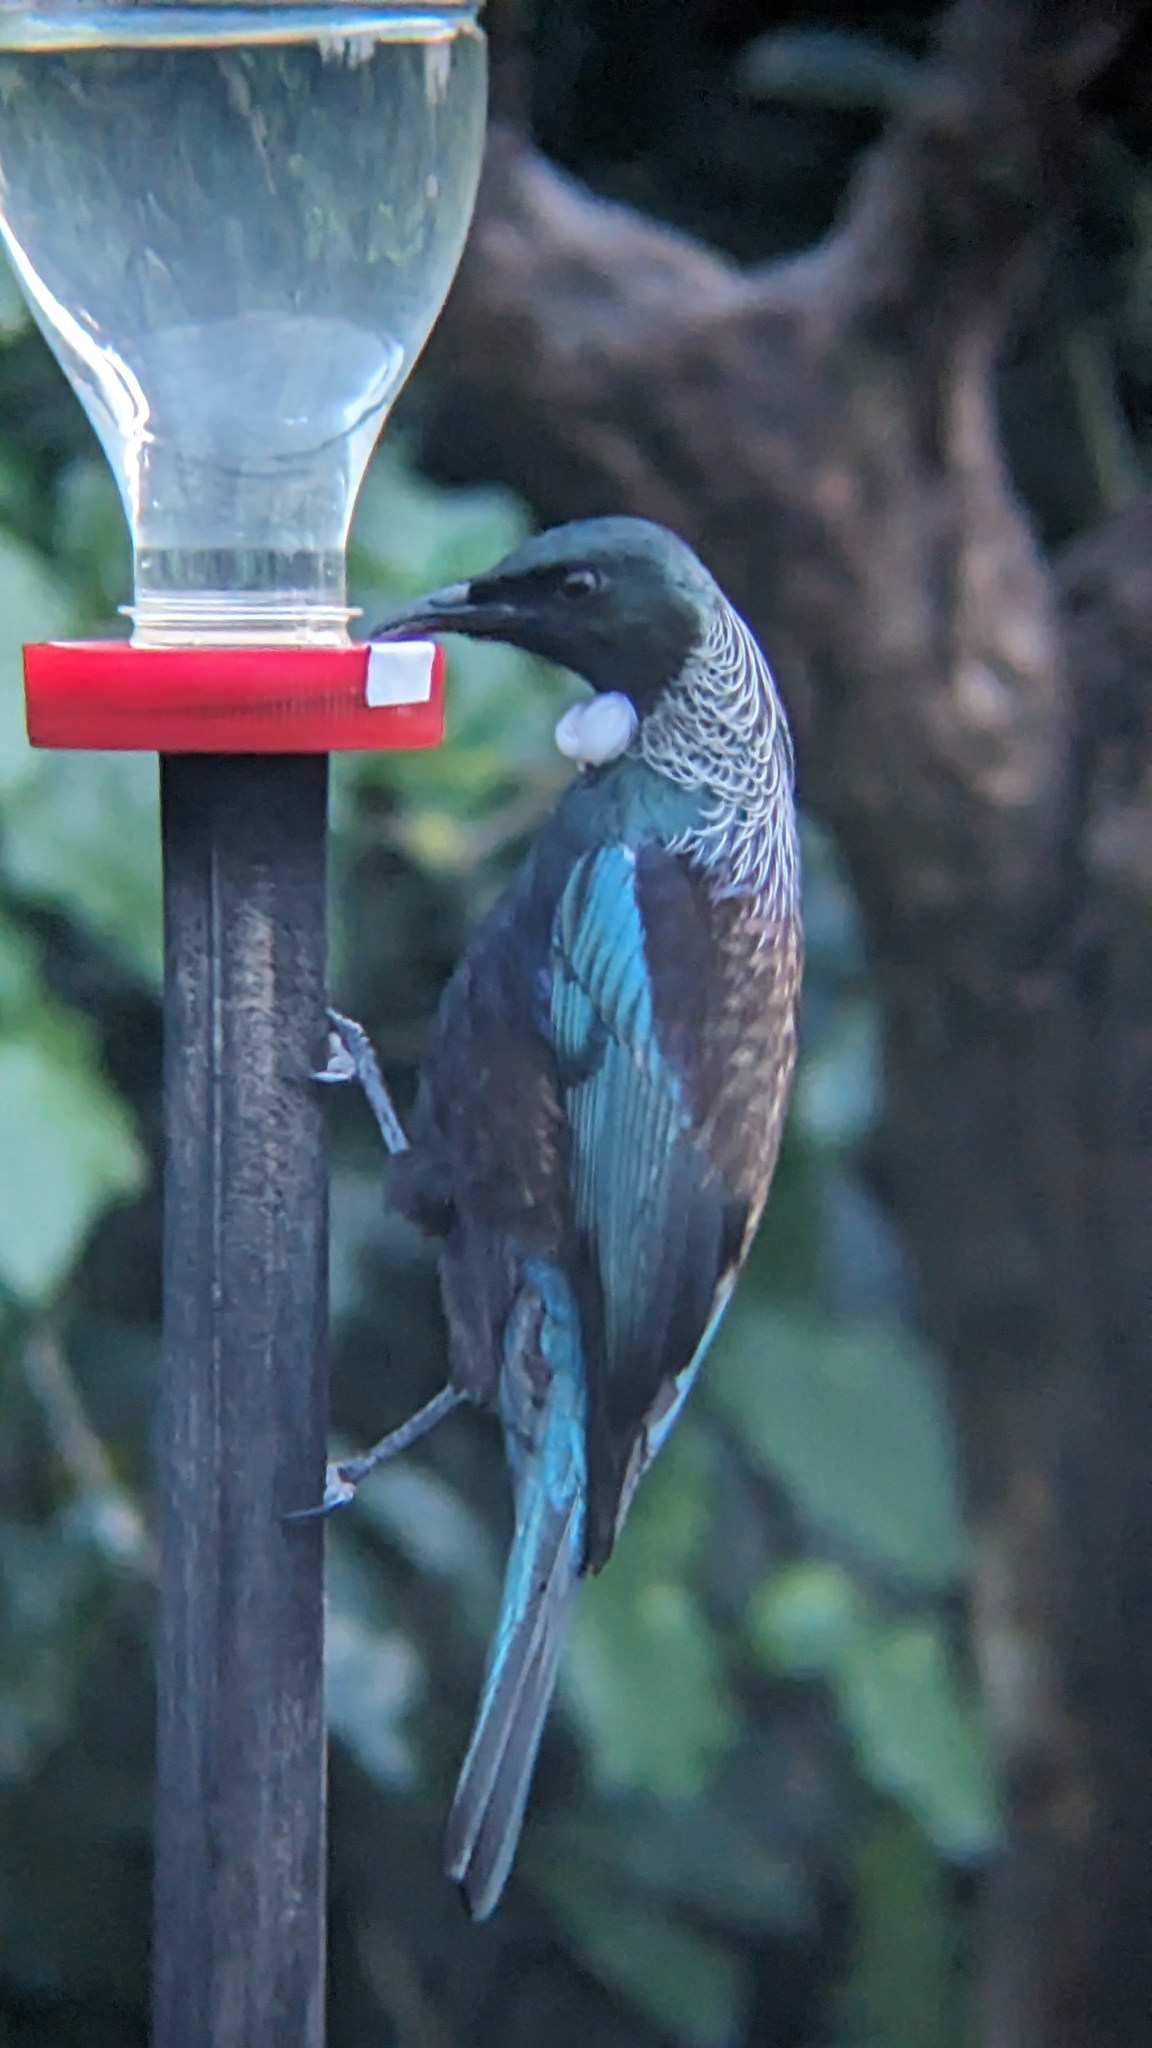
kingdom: Animalia
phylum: Chordata
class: Aves
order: Passeriformes
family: Meliphagidae
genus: Prosthemadera
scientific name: Prosthemadera novaeseelandiae
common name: Tui
